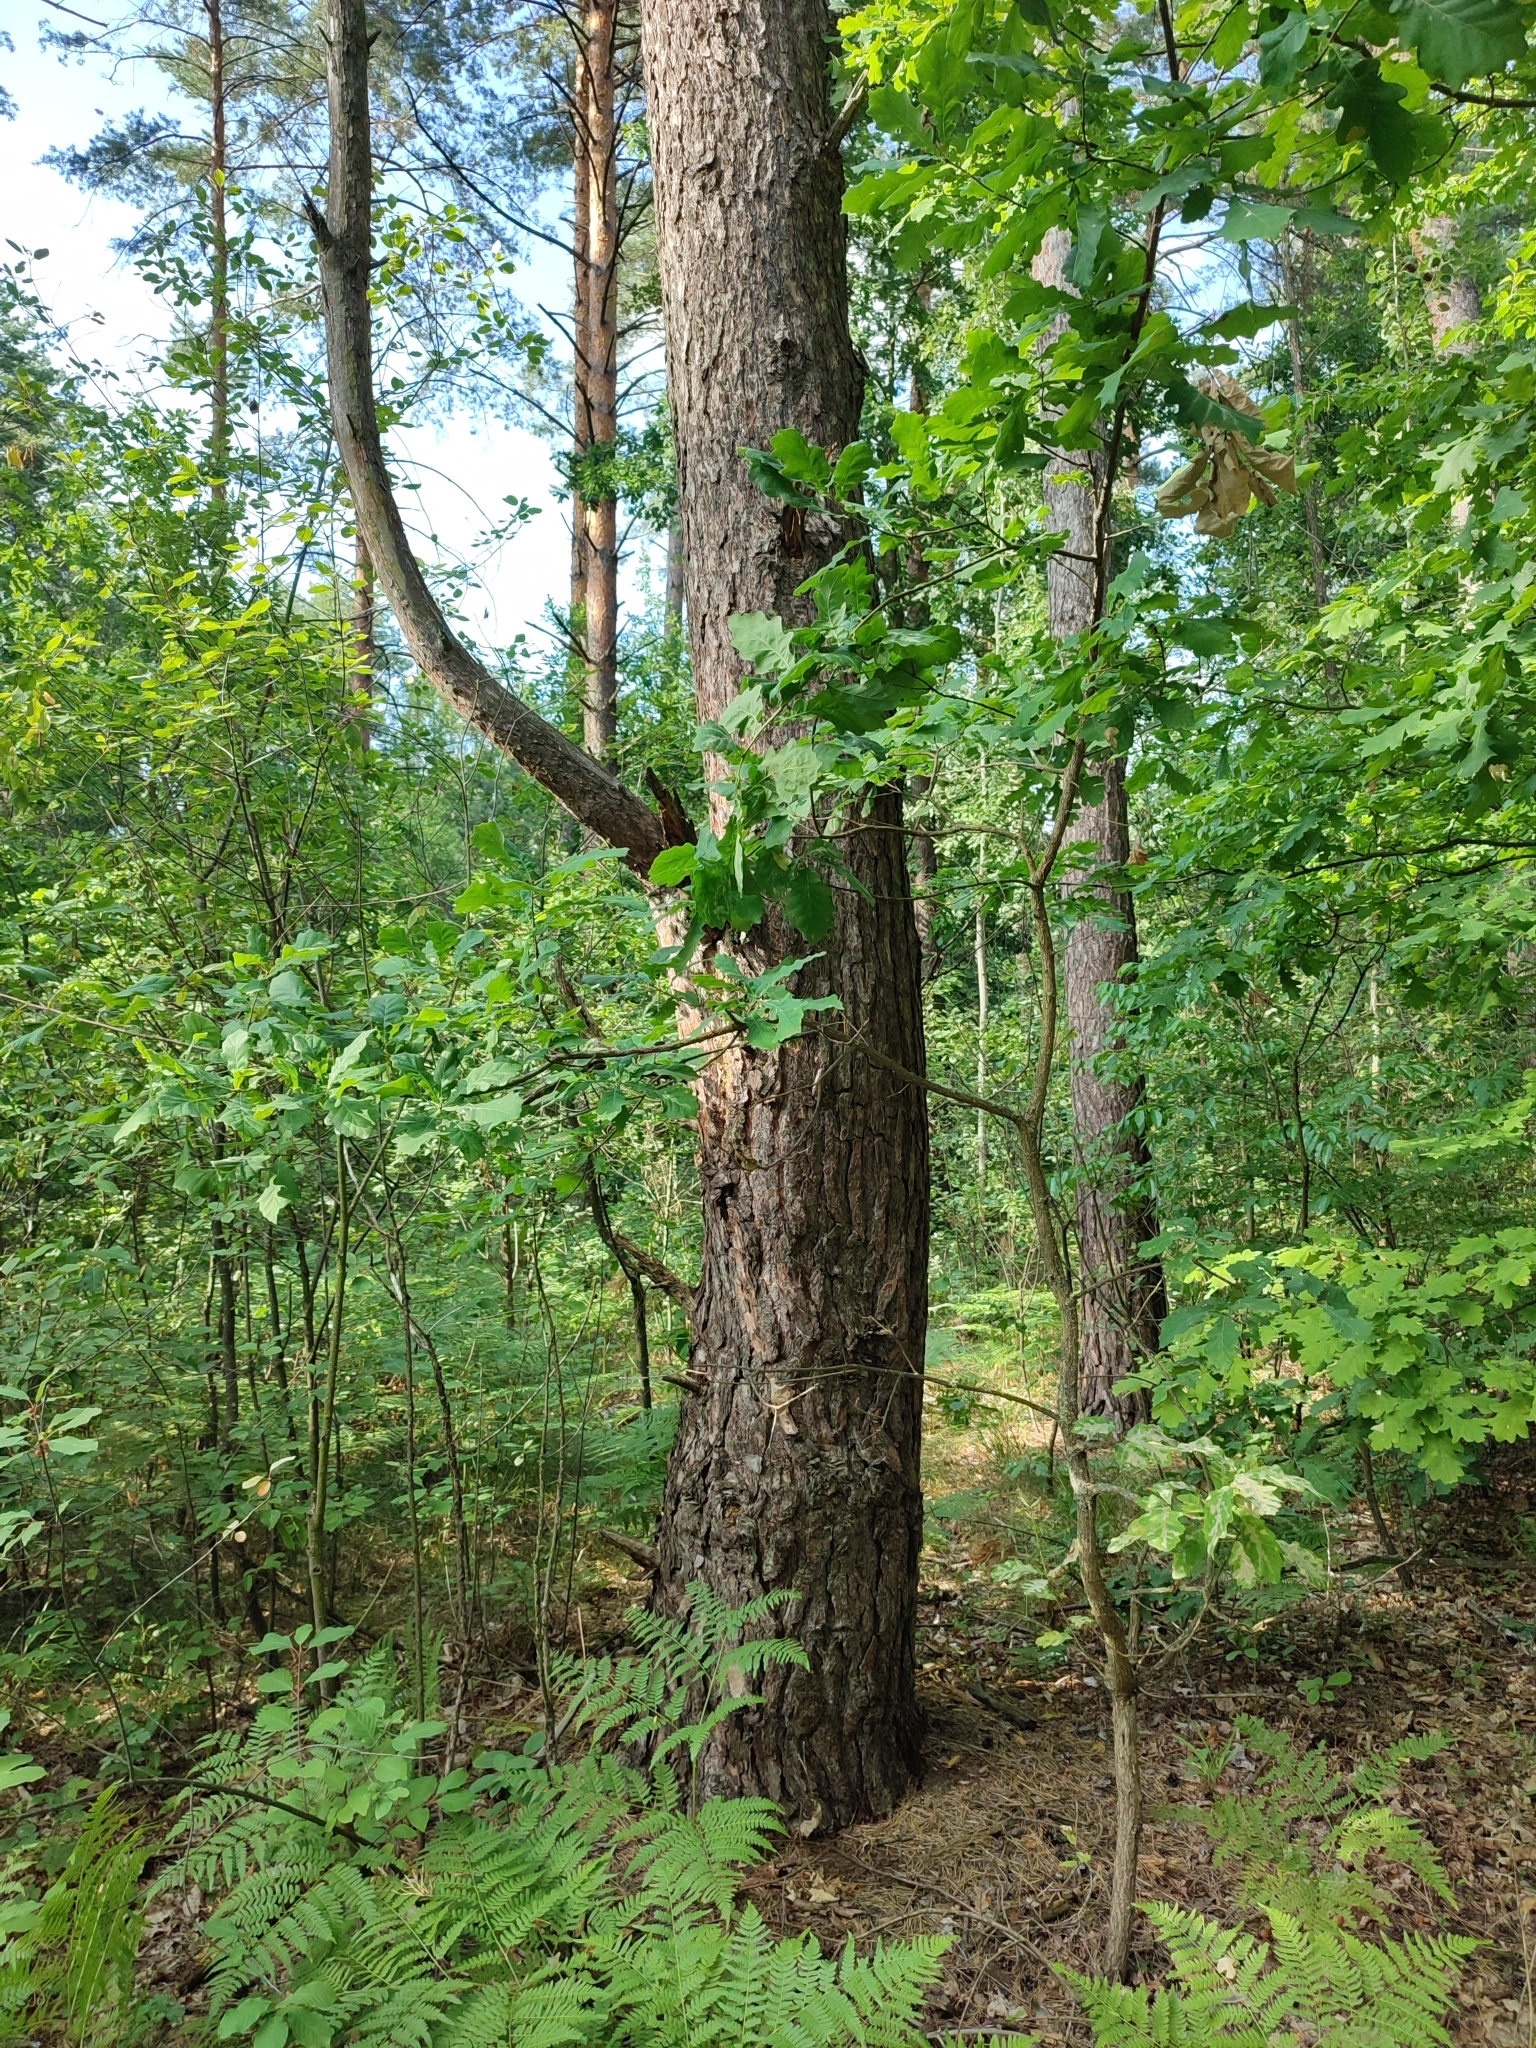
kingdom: Plantae
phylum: Tracheophyta
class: Magnoliopsida
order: Fagales
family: Fagaceae
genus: Quercus
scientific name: Quercus robur
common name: Pedunculate oak
